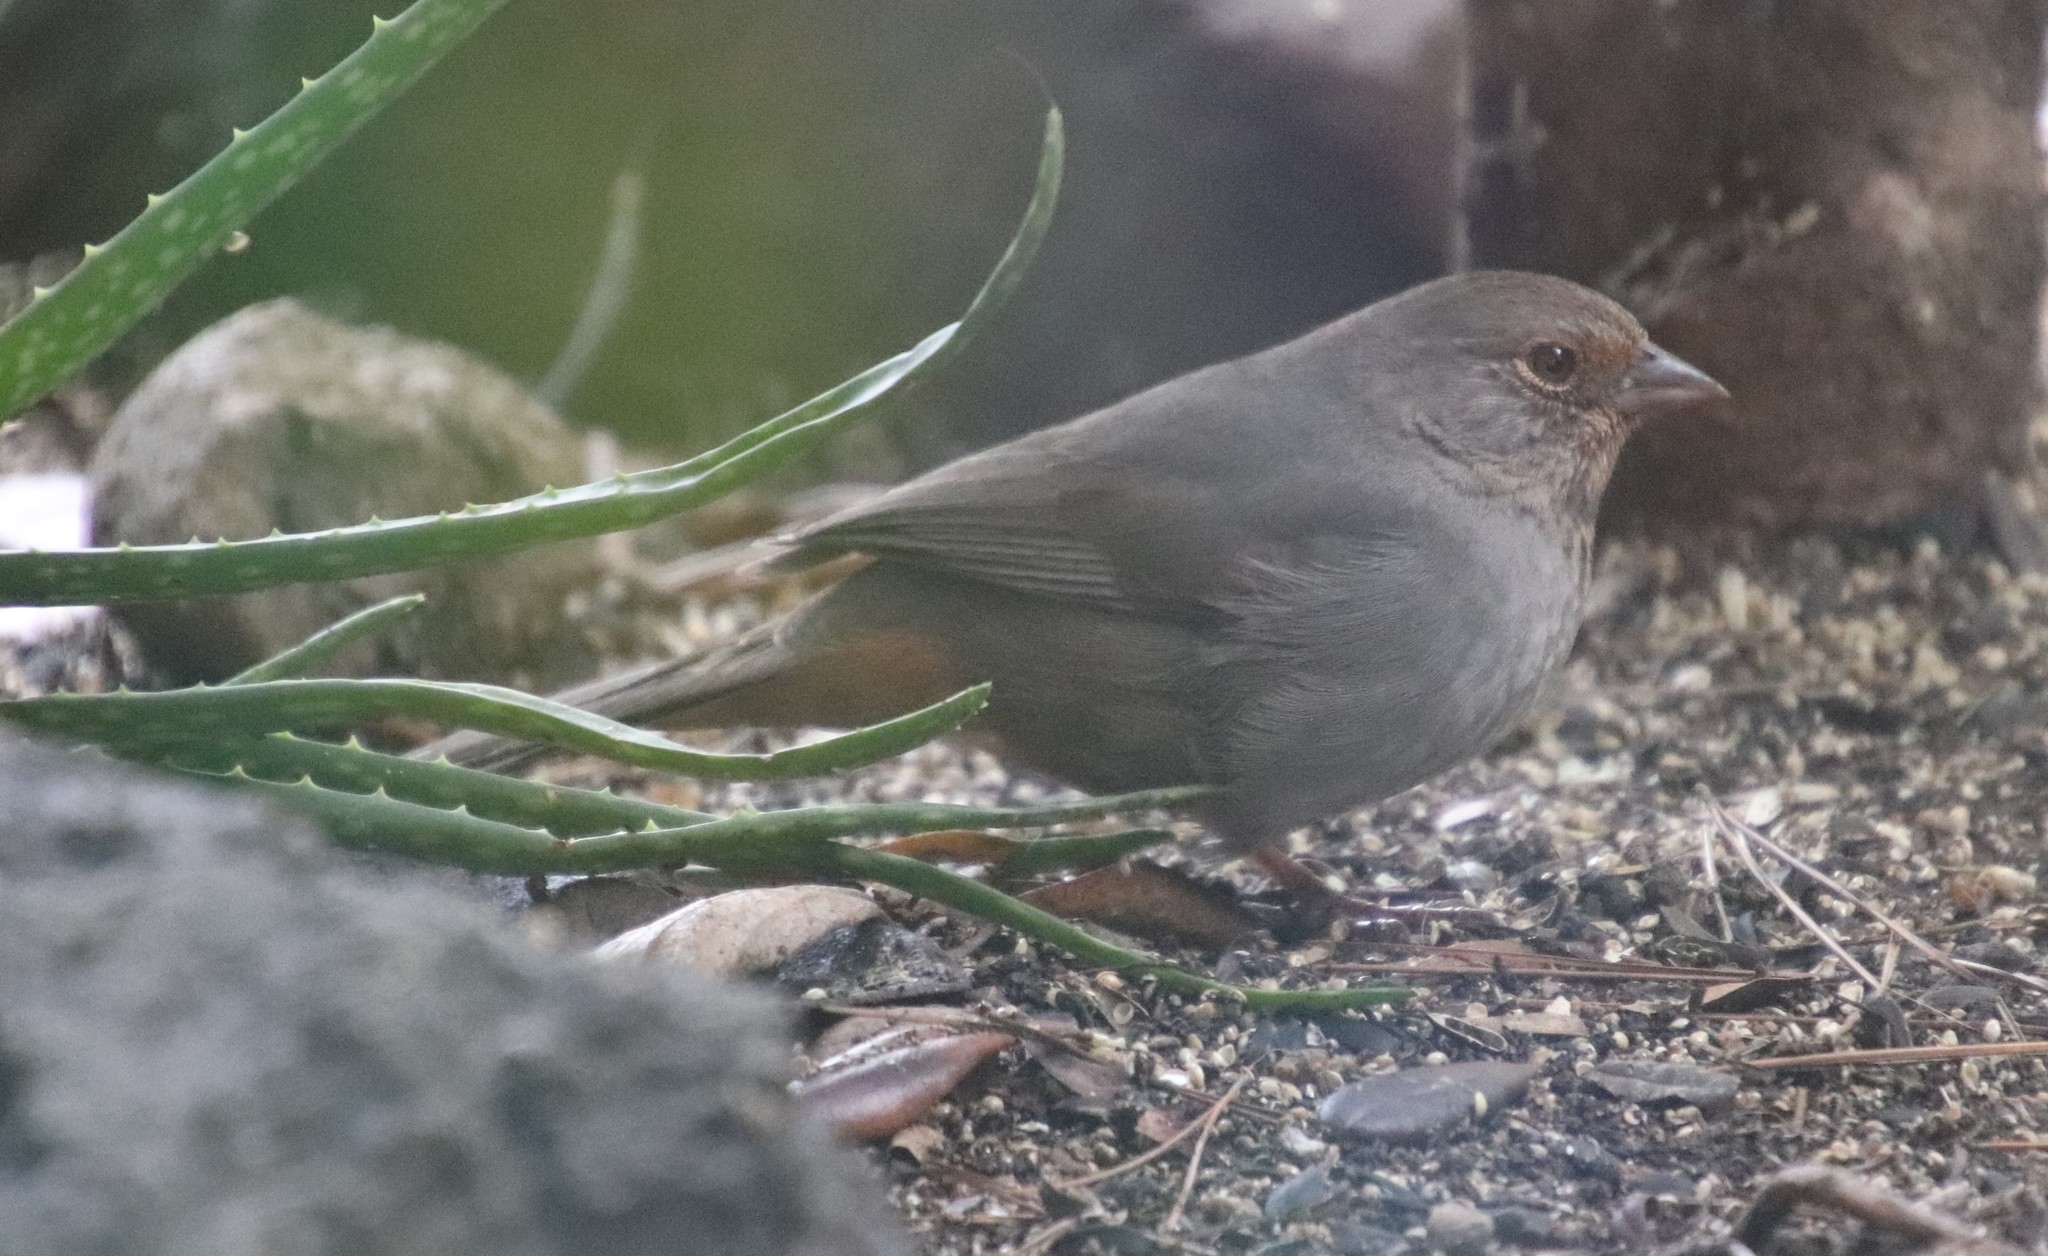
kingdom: Animalia
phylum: Chordata
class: Aves
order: Passeriformes
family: Passerellidae
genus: Melozone
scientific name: Melozone crissalis
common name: California towhee
